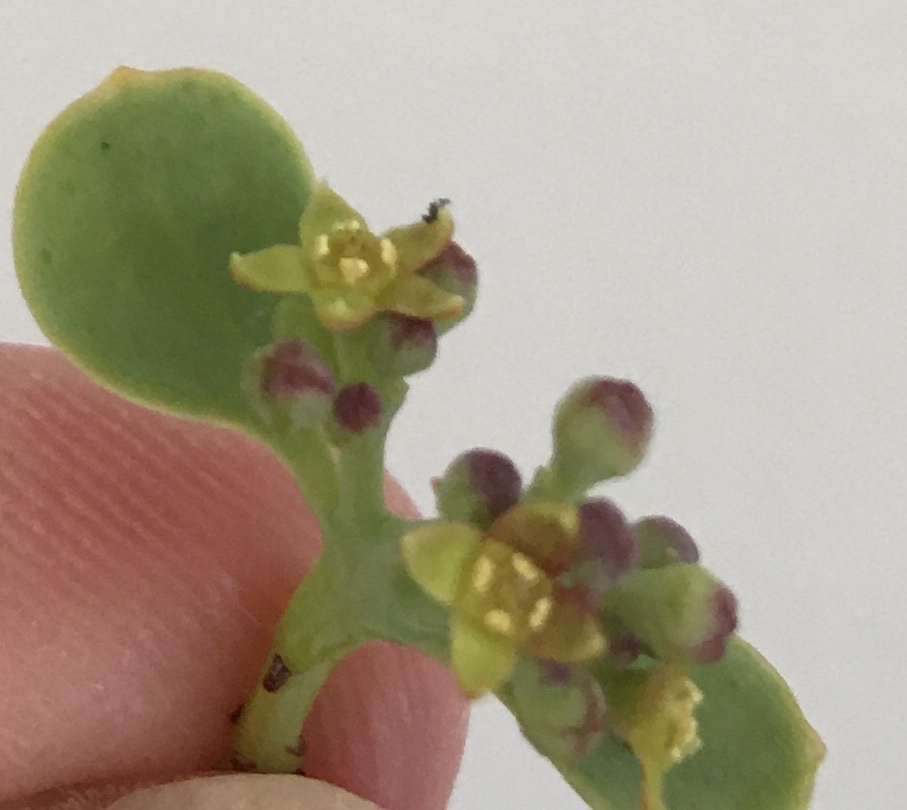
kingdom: Plantae
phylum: Tracheophyta
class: Magnoliopsida
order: Santalales
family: Santalaceae
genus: Osyris
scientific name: Osyris speciosa
